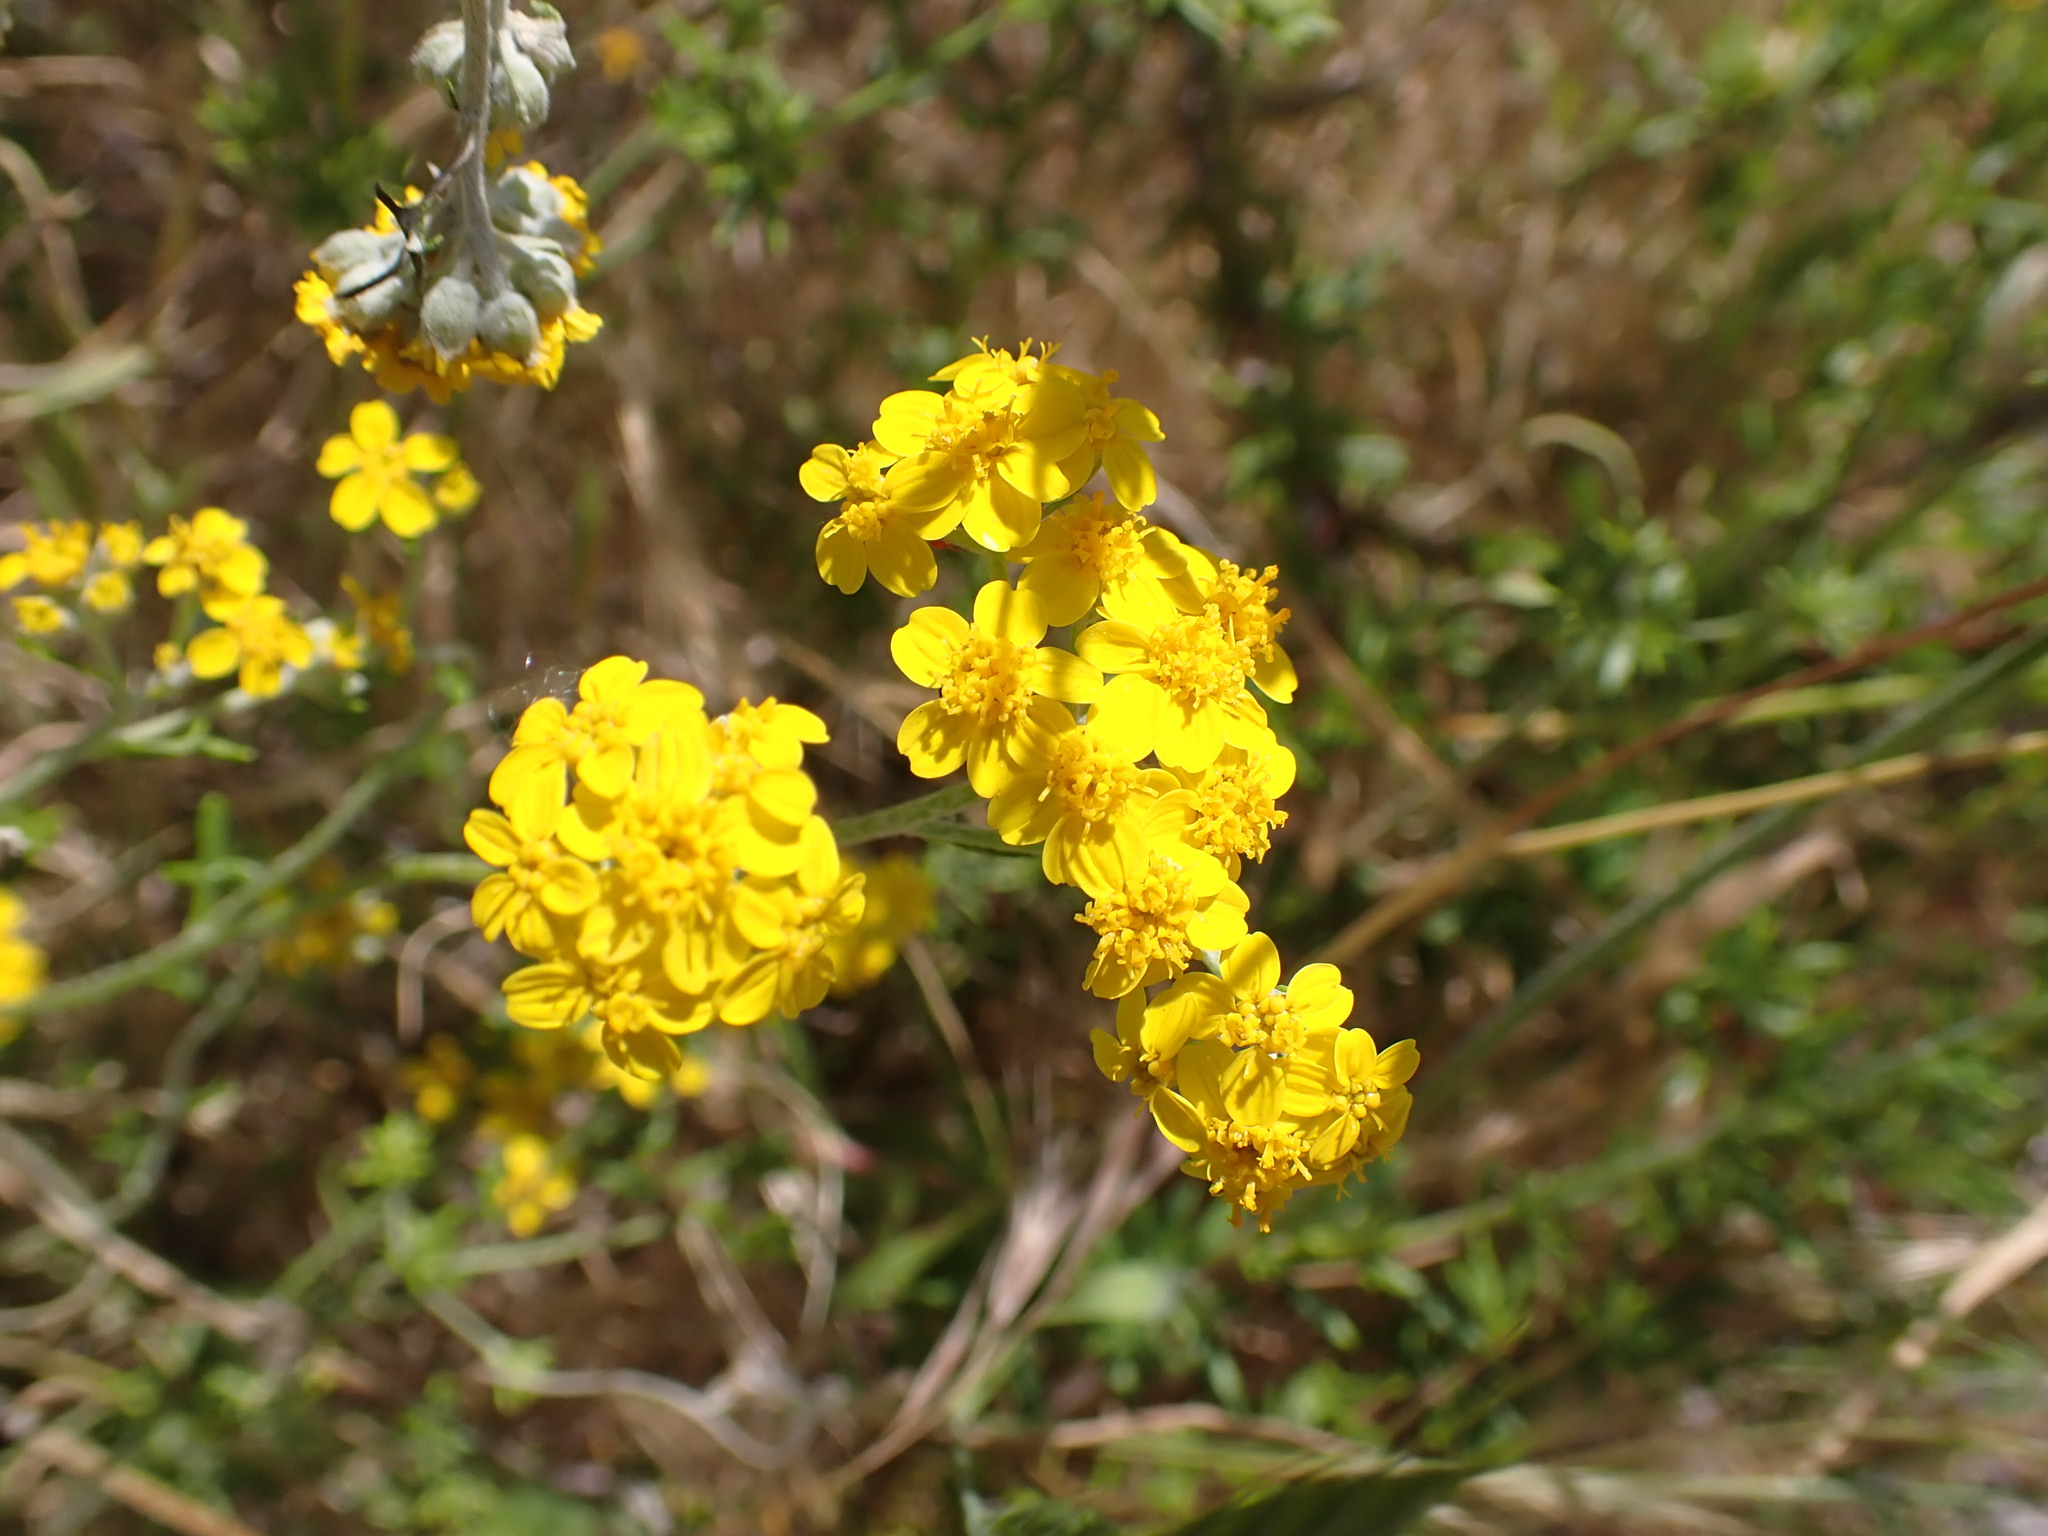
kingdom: Plantae
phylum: Tracheophyta
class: Magnoliopsida
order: Asterales
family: Asteraceae
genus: Eriophyllum
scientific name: Eriophyllum confertiflorum
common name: Golden-yarrow
